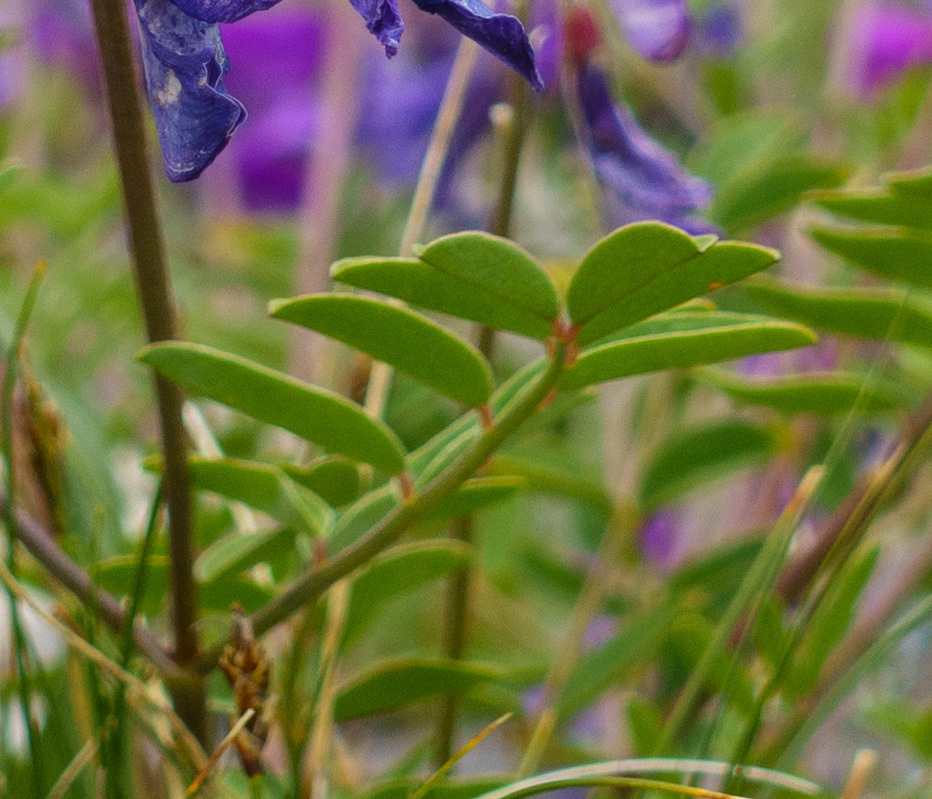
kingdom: Plantae
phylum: Tracheophyta
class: Magnoliopsida
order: Fabales
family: Fabaceae
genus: Hedysarum
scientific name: Hedysarum boreale
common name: Northern sweet-vetch
